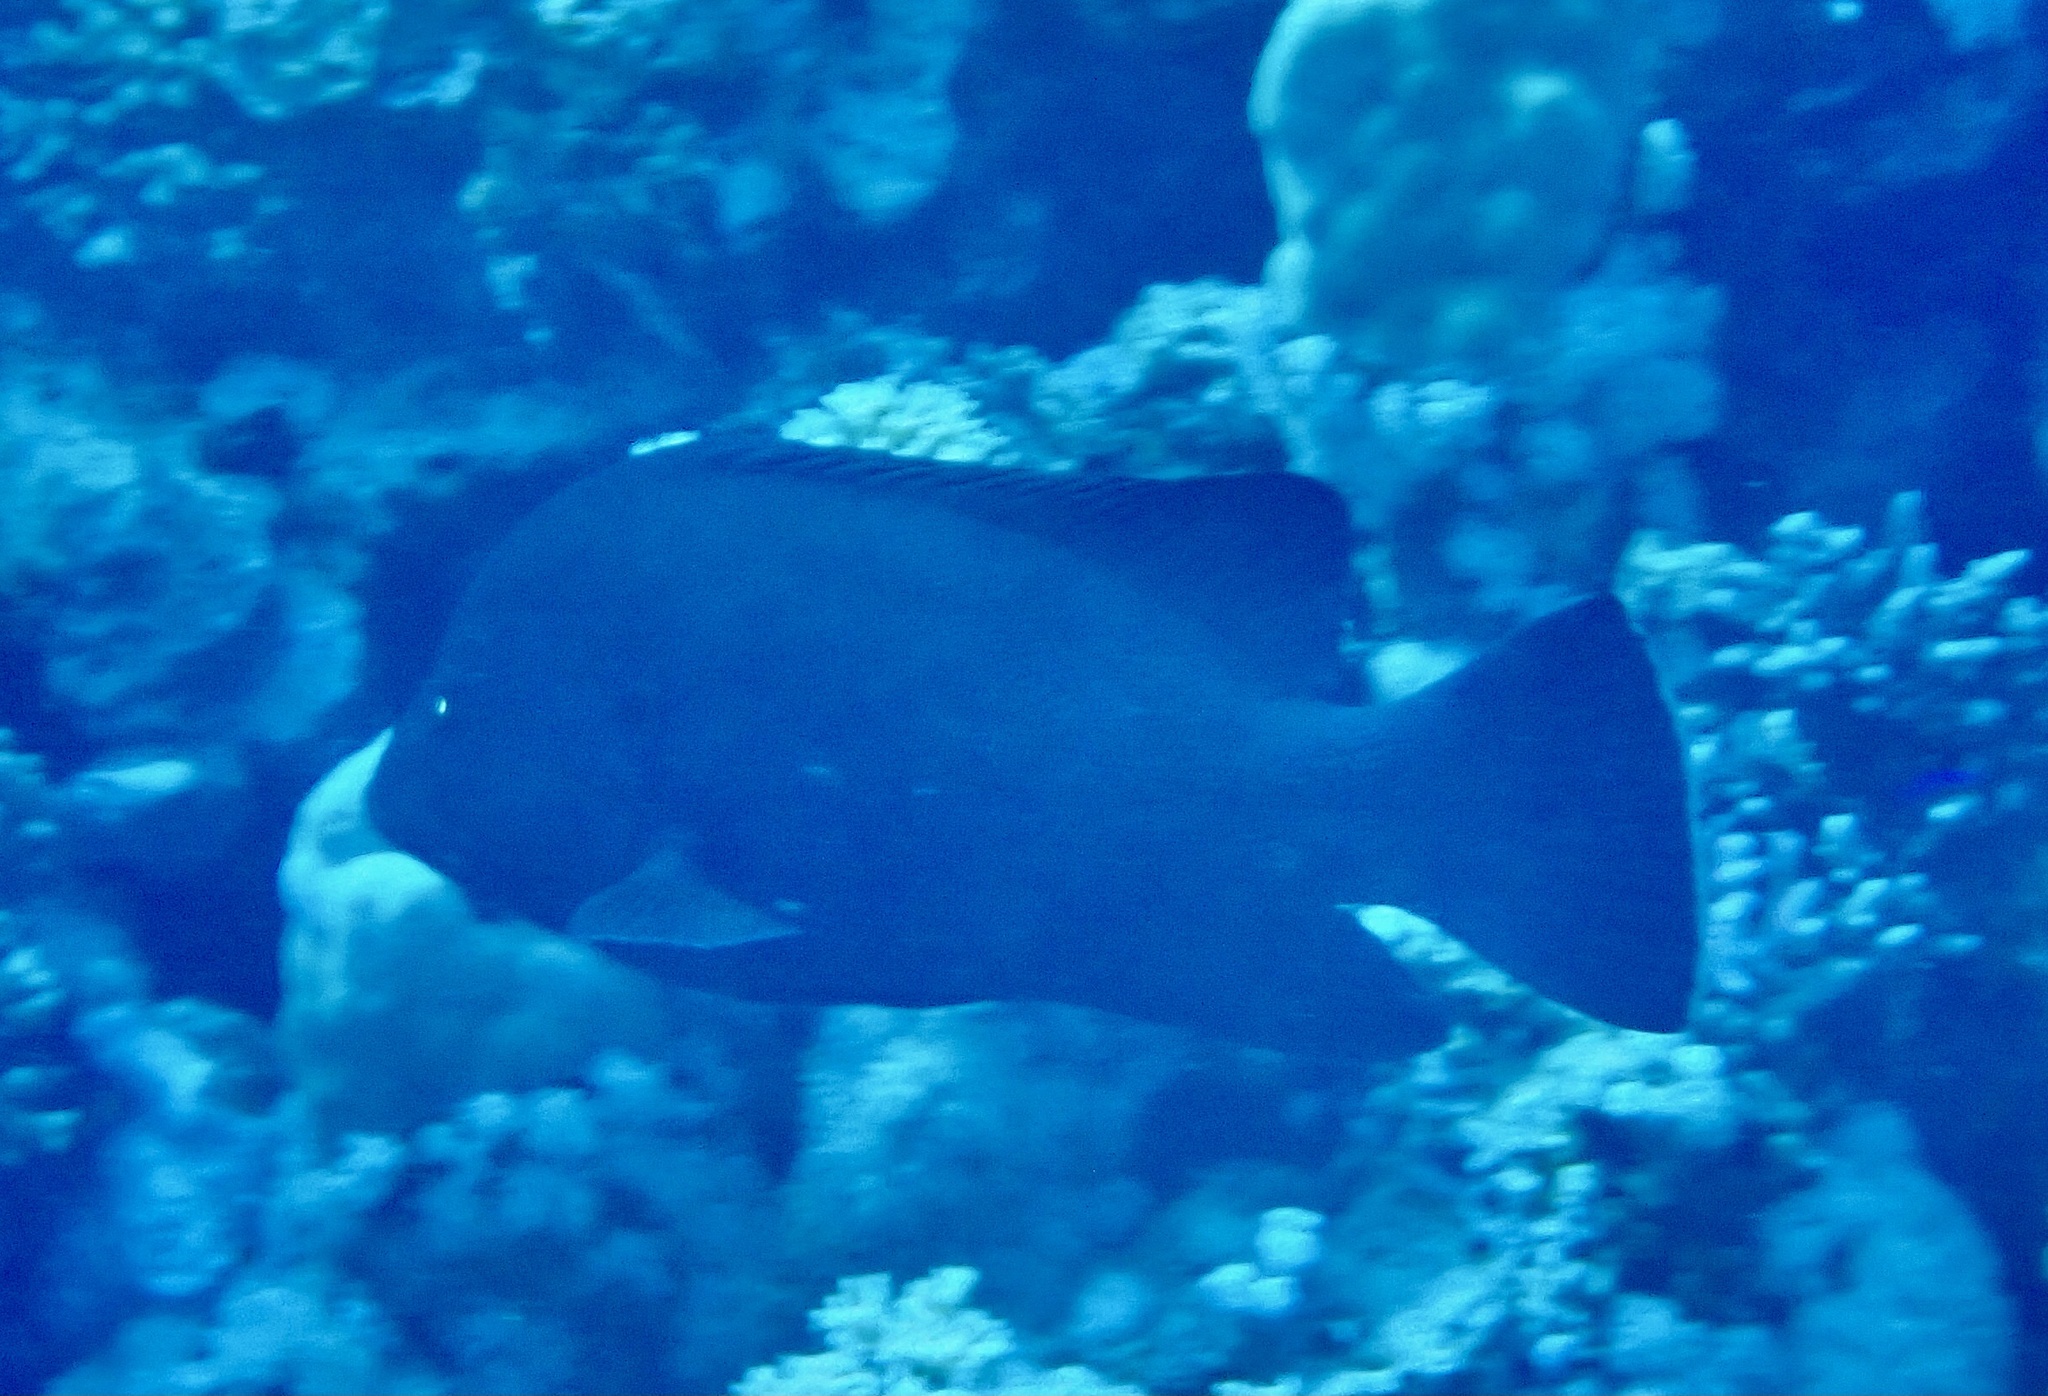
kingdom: Animalia
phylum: Chordata
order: Perciformes
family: Serranidae
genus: Aethaloperca
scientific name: Aethaloperca rogaa
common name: Redmouth grouper
